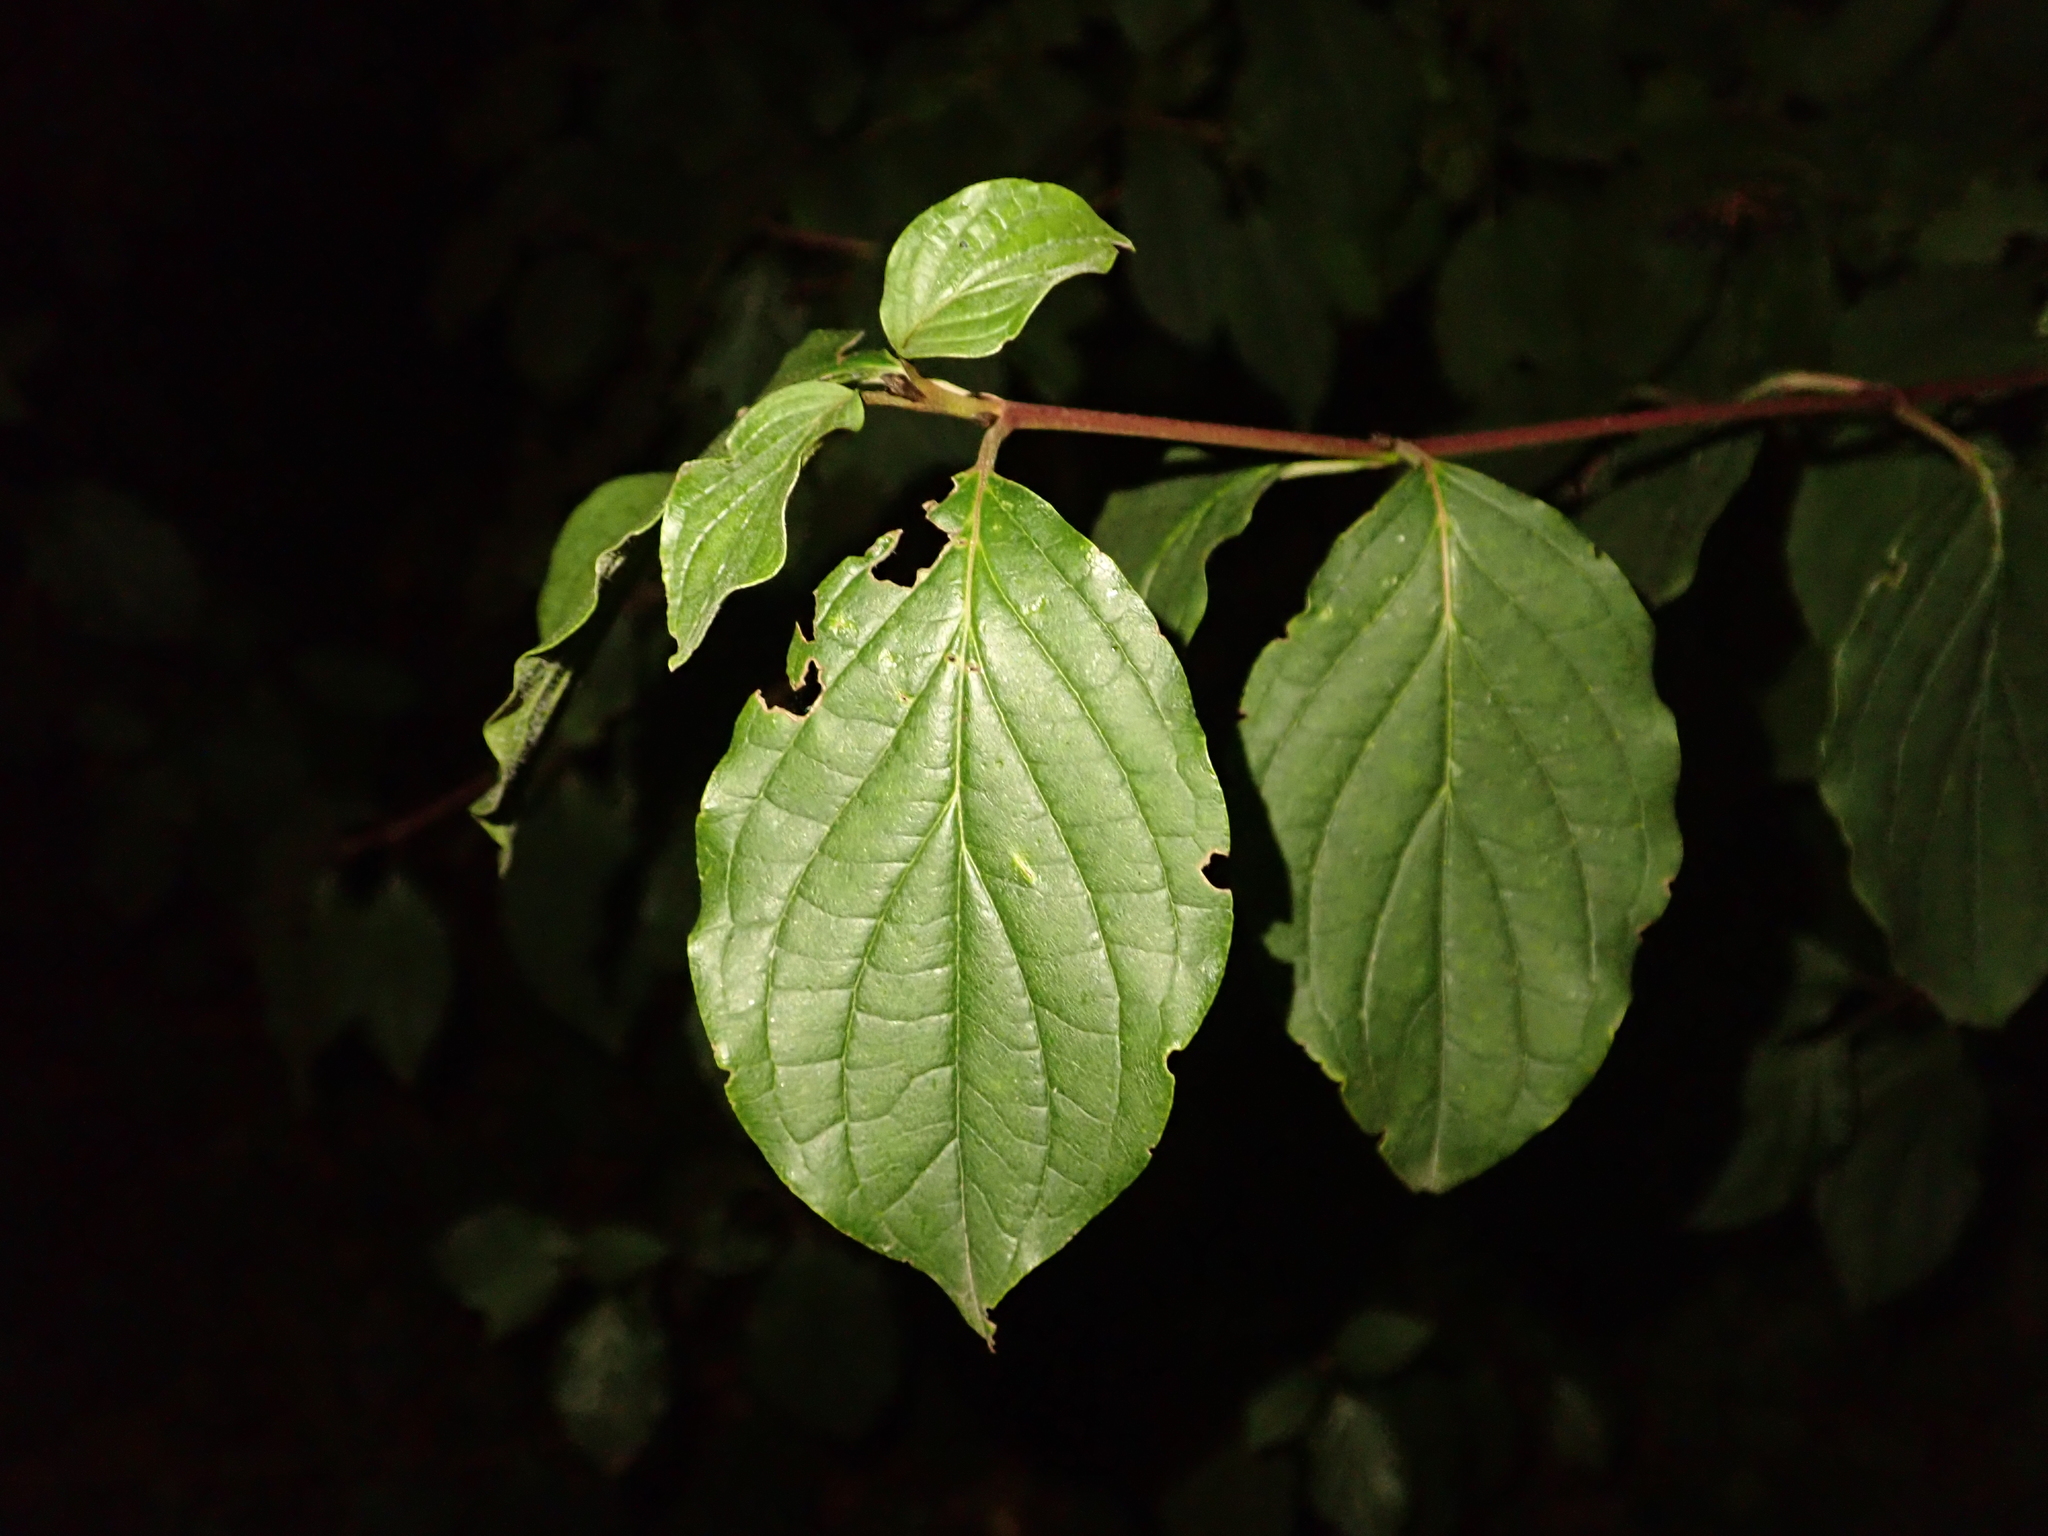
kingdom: Plantae
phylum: Tracheophyta
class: Magnoliopsida
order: Cornales
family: Cornaceae
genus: Cornus
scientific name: Cornus sanguinea
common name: Dogwood
